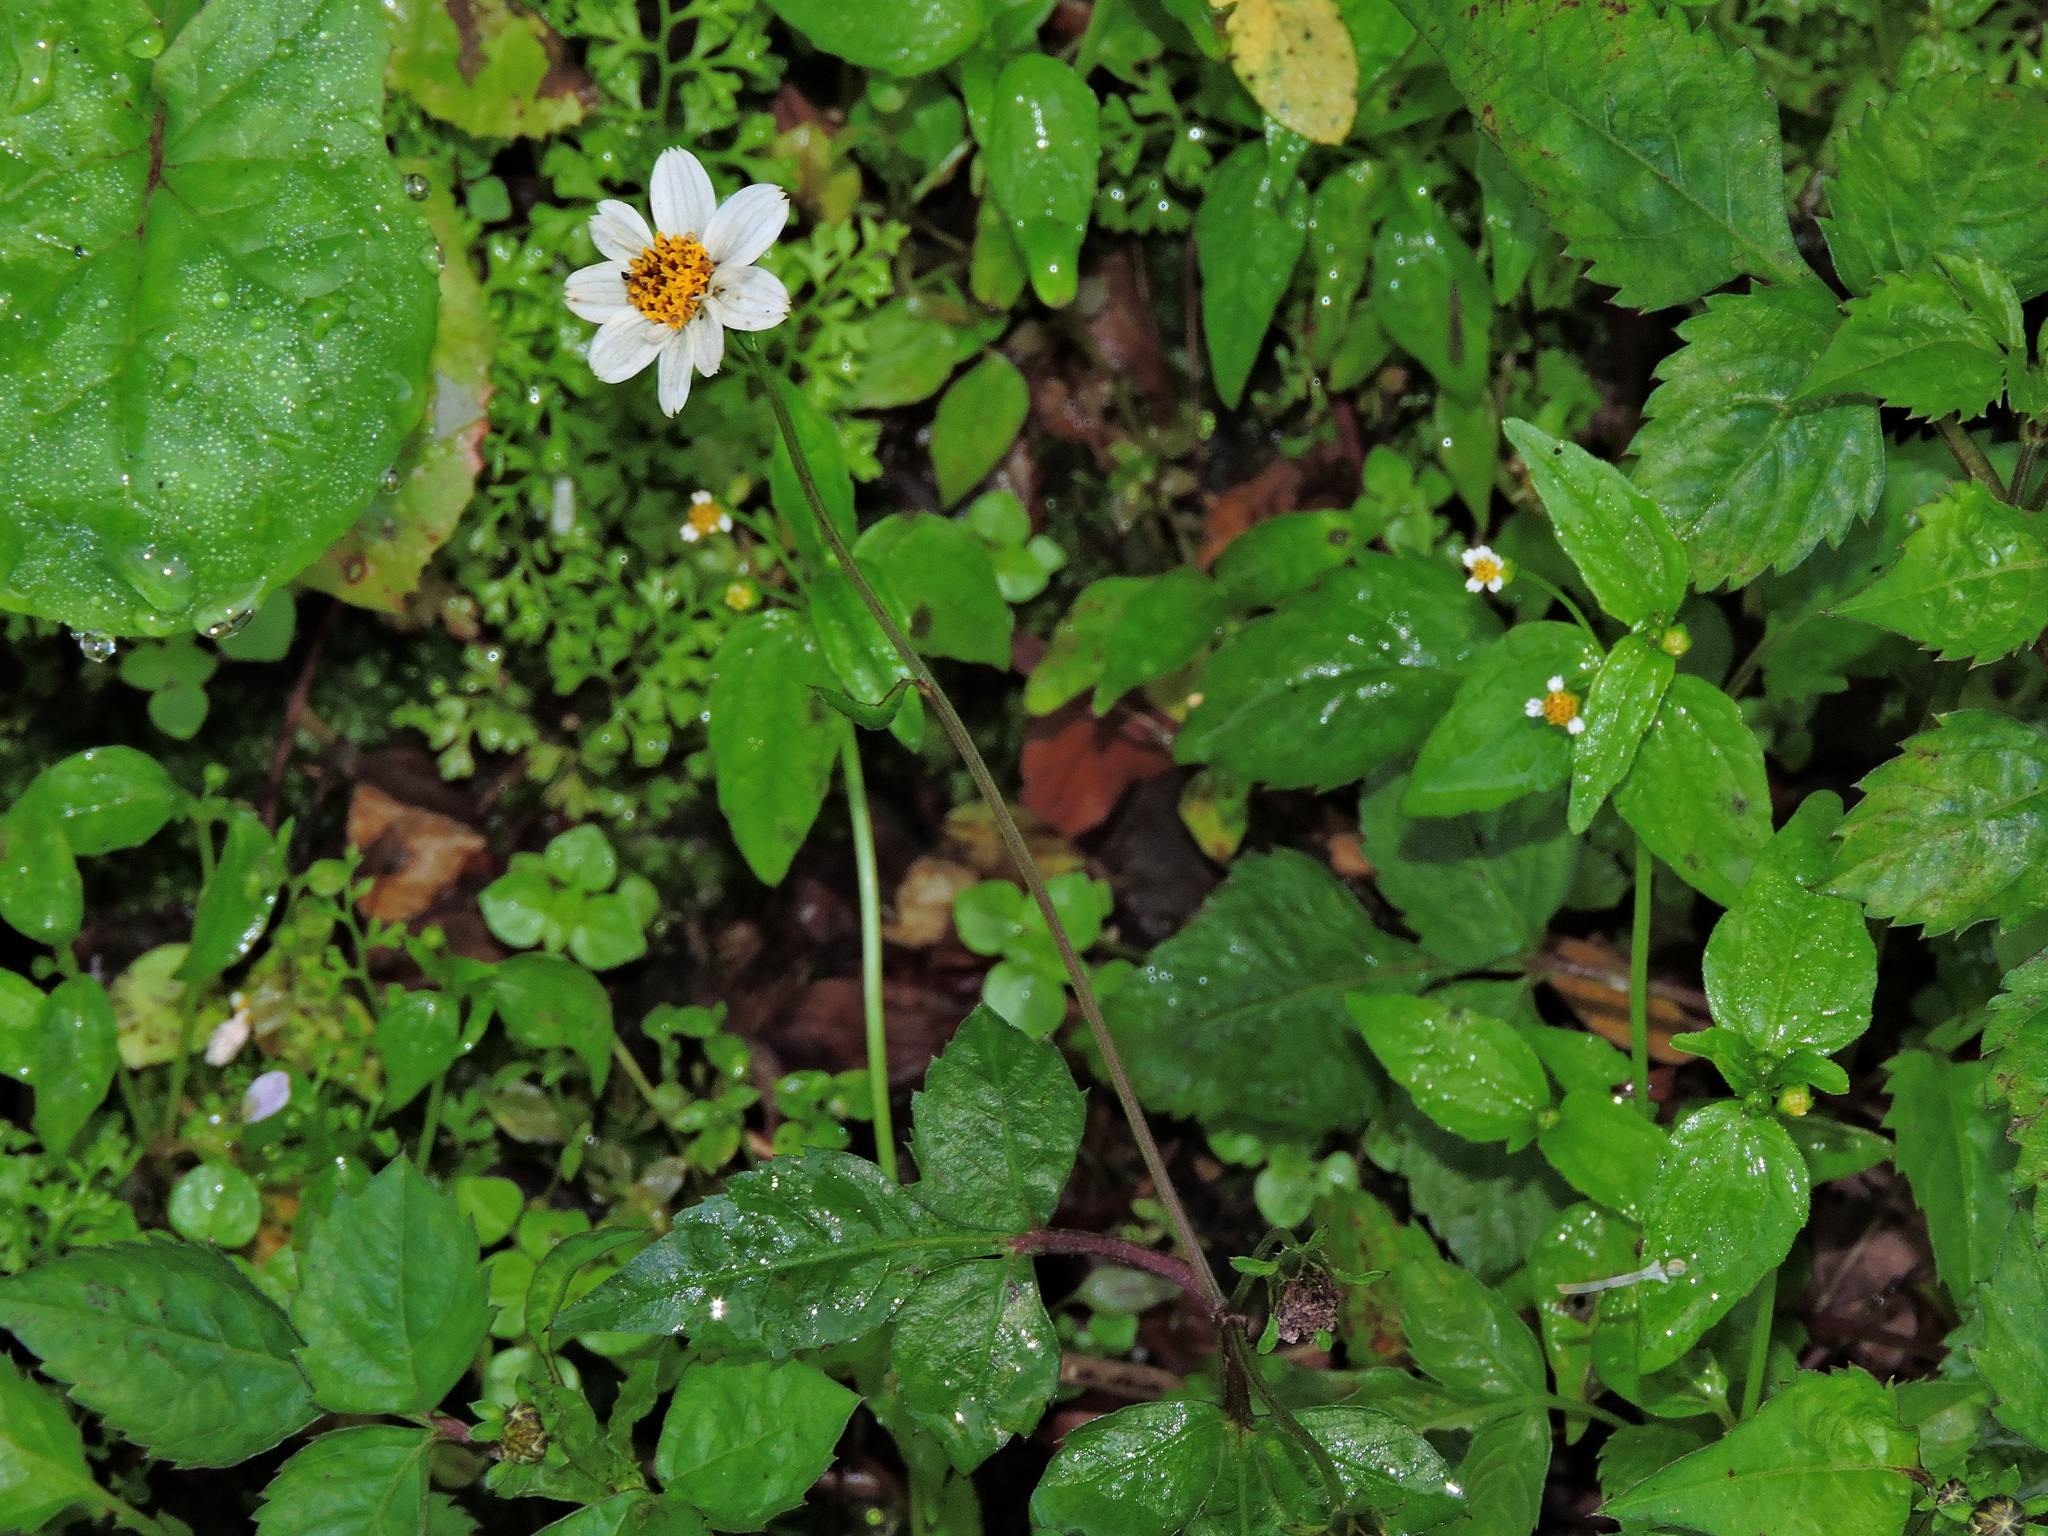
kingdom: Plantae
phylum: Tracheophyta
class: Magnoliopsida
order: Asterales
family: Asteraceae
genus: Bidens
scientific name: Bidens pilosa
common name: Black-jack
